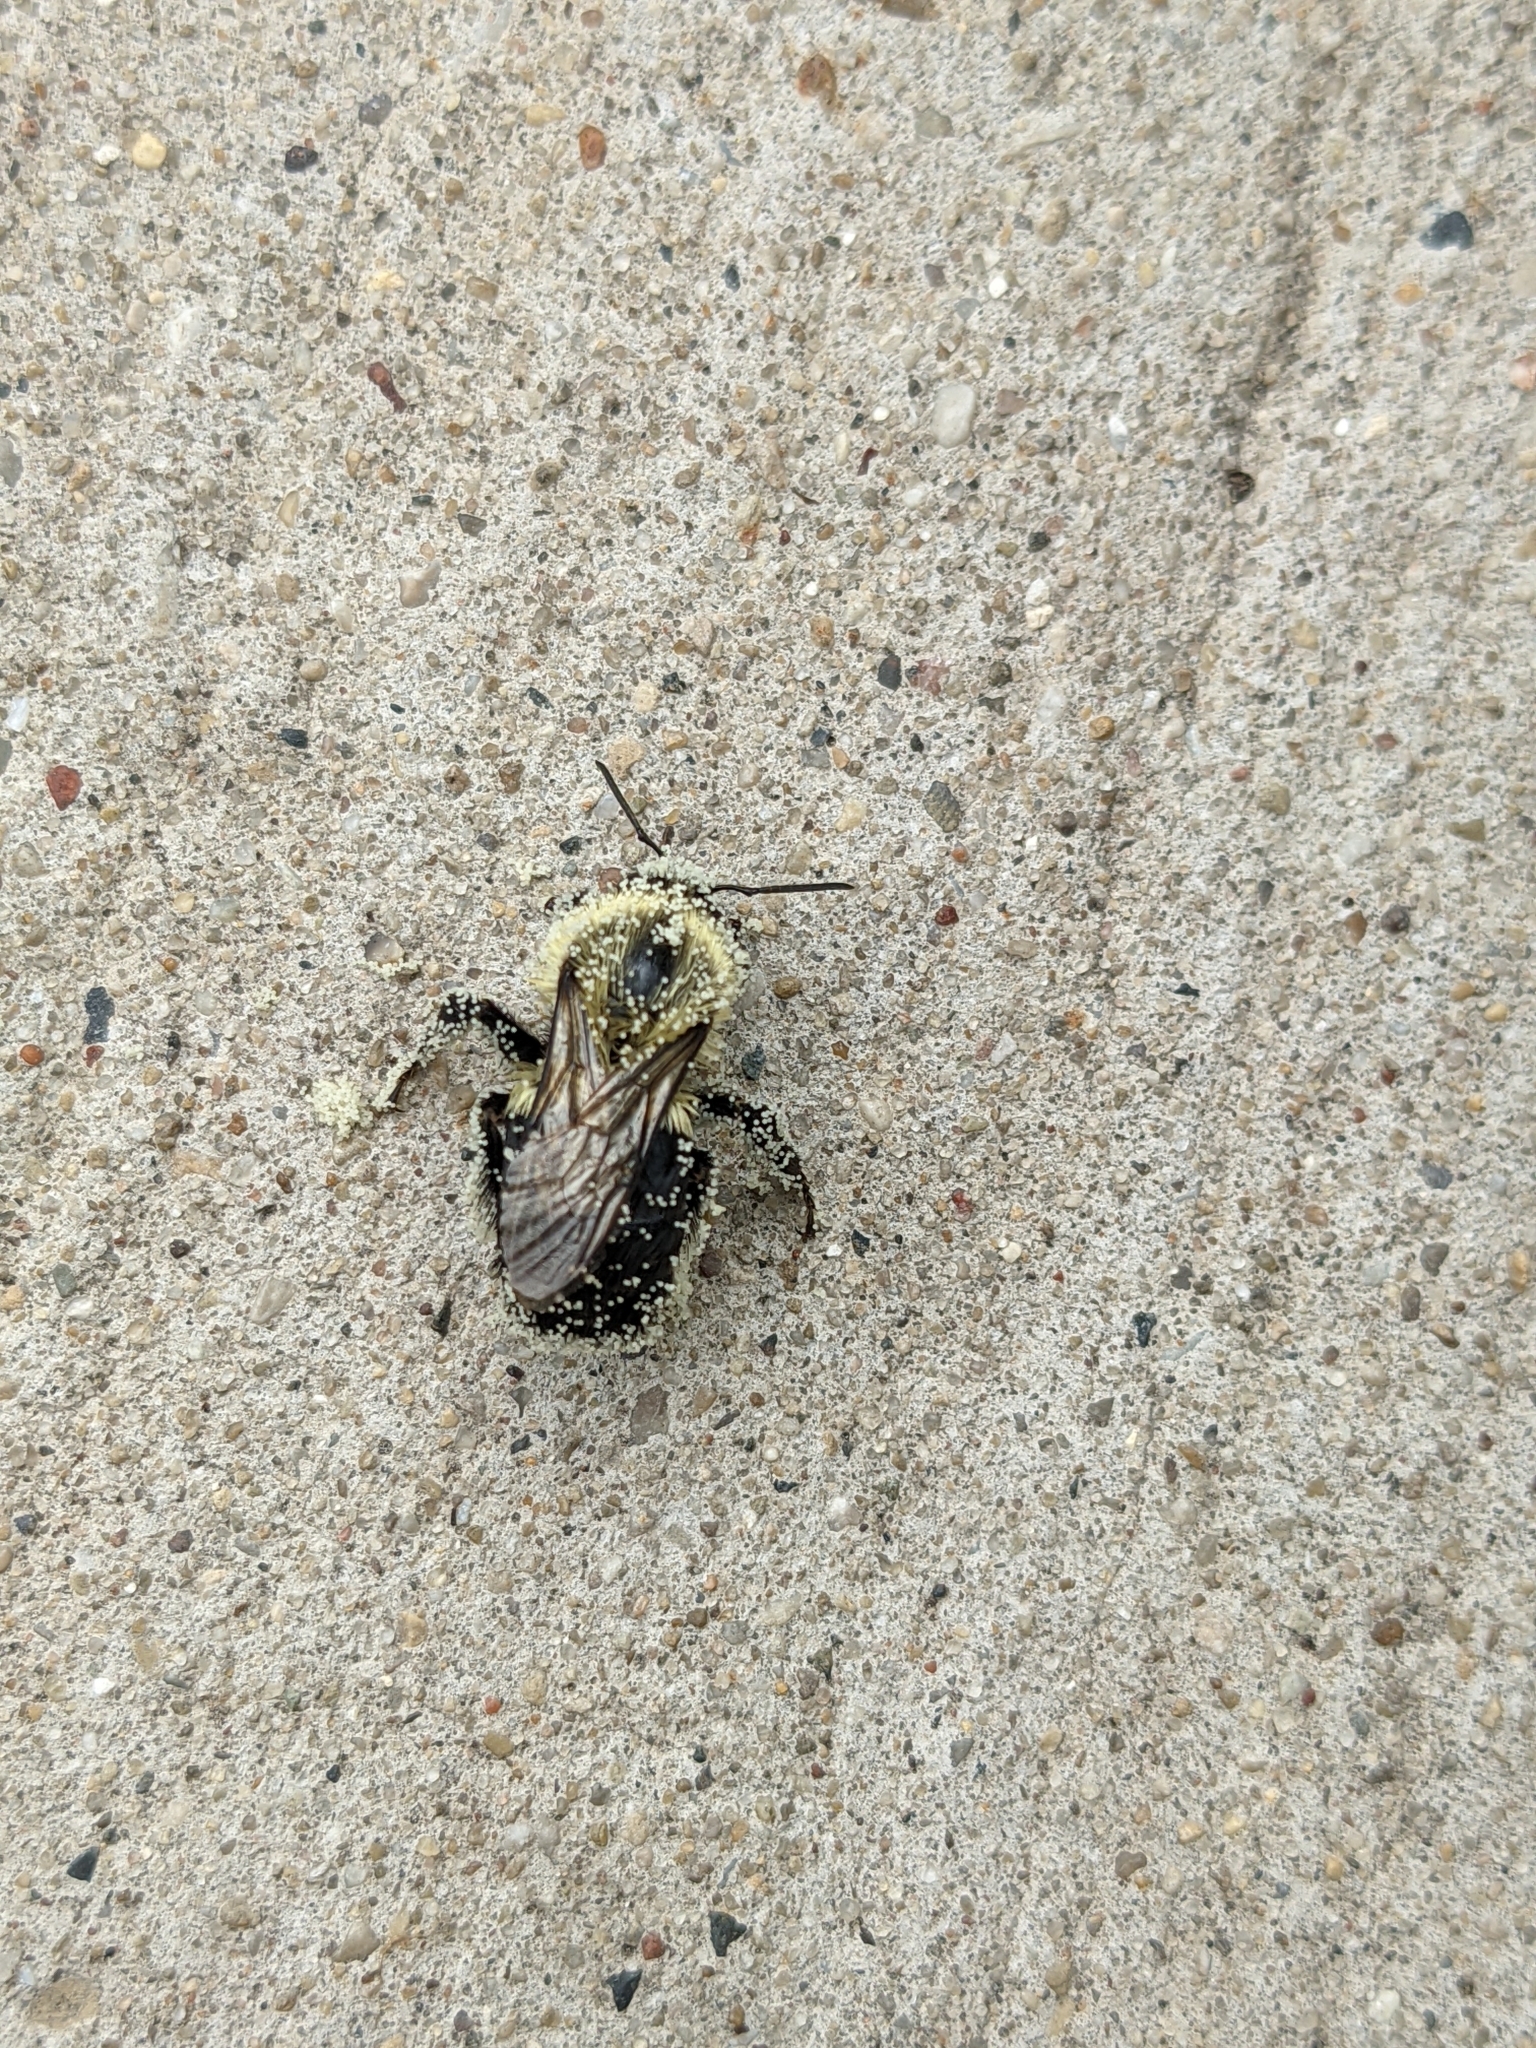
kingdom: Animalia
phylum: Arthropoda
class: Insecta
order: Hymenoptera
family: Apidae
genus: Bombus
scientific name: Bombus impatiens
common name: Common eastern bumble bee
